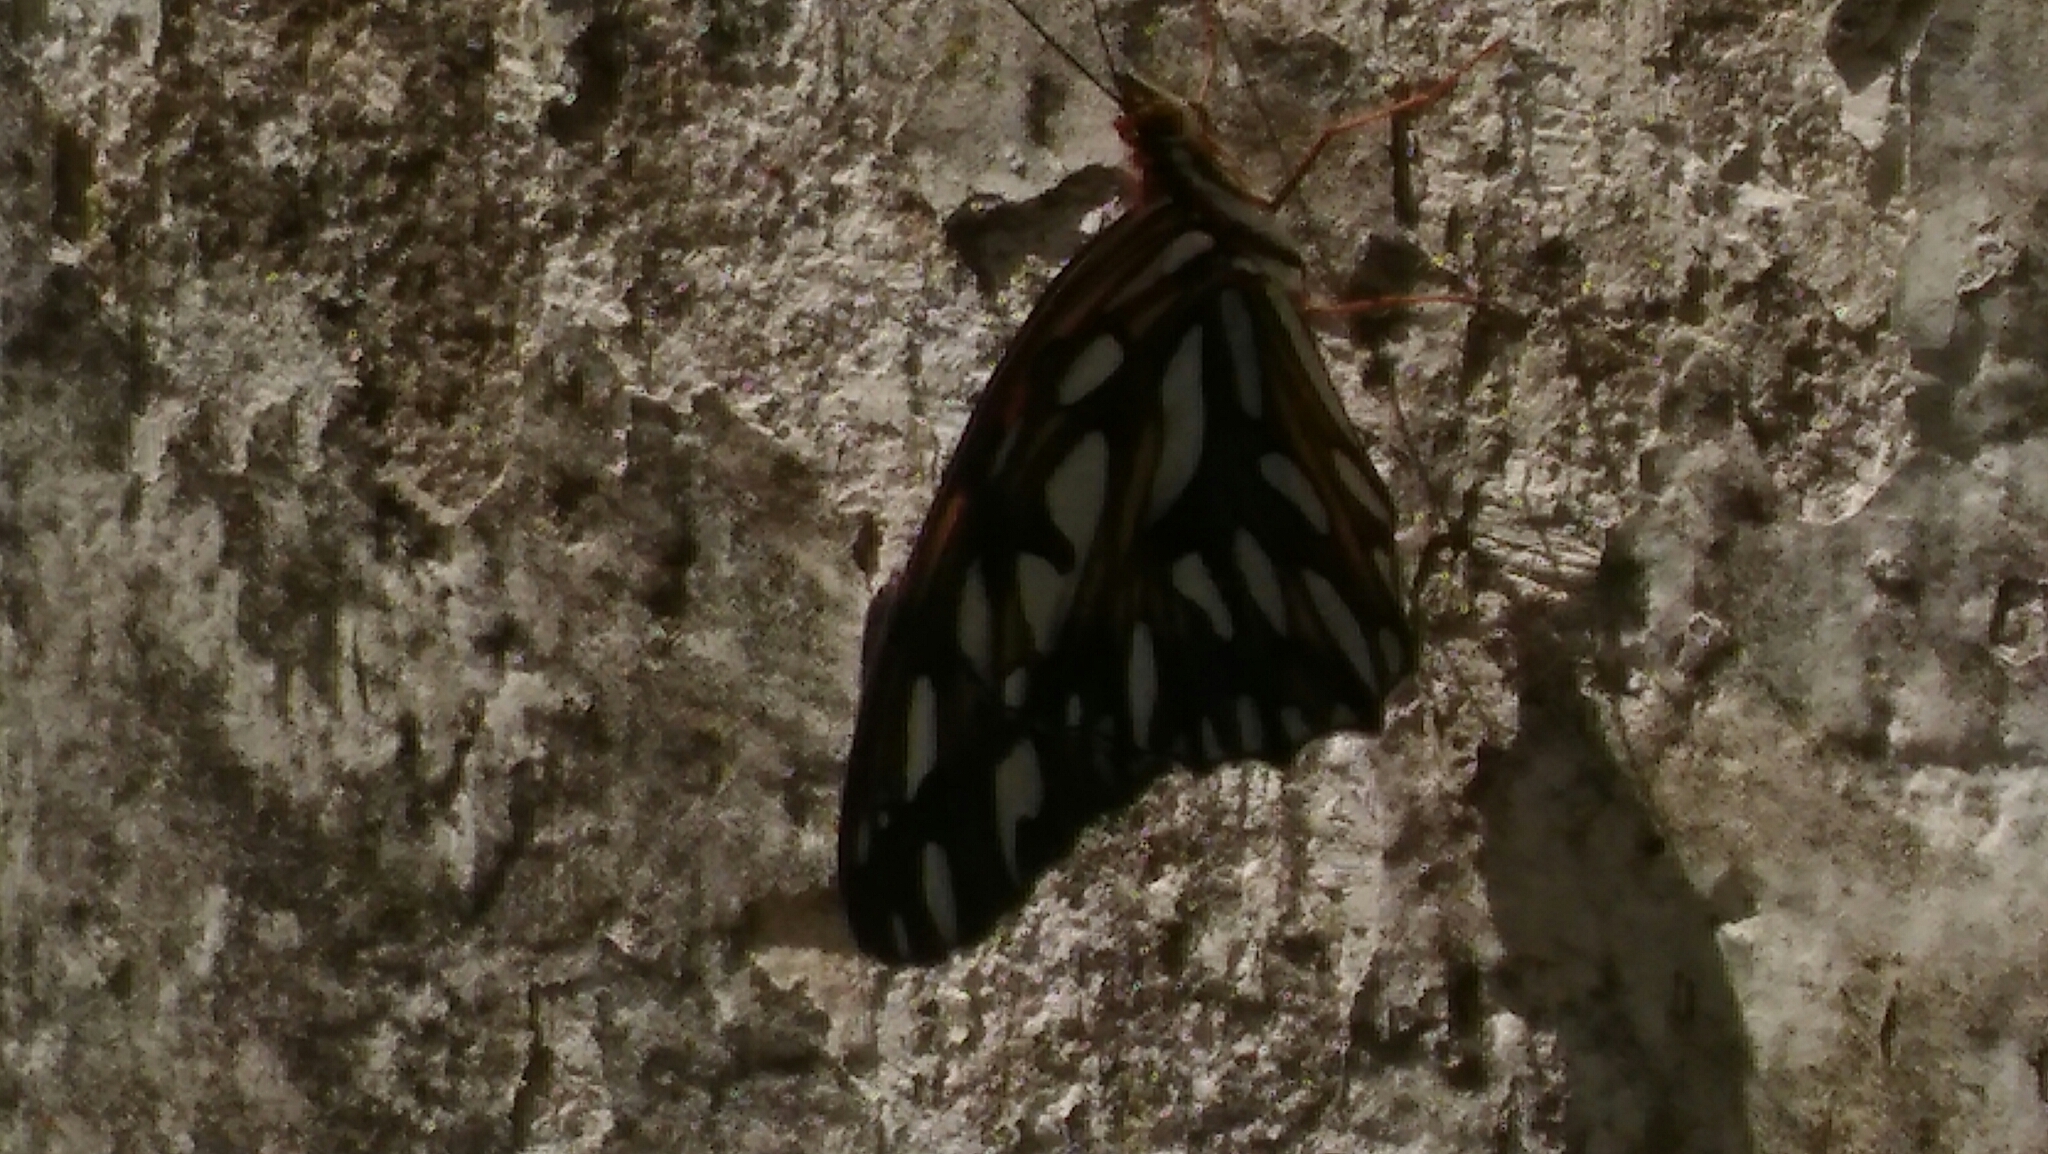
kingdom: Animalia
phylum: Arthropoda
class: Insecta
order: Lepidoptera
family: Nymphalidae
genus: Dione
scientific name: Dione vanillae
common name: Gulf fritillary
